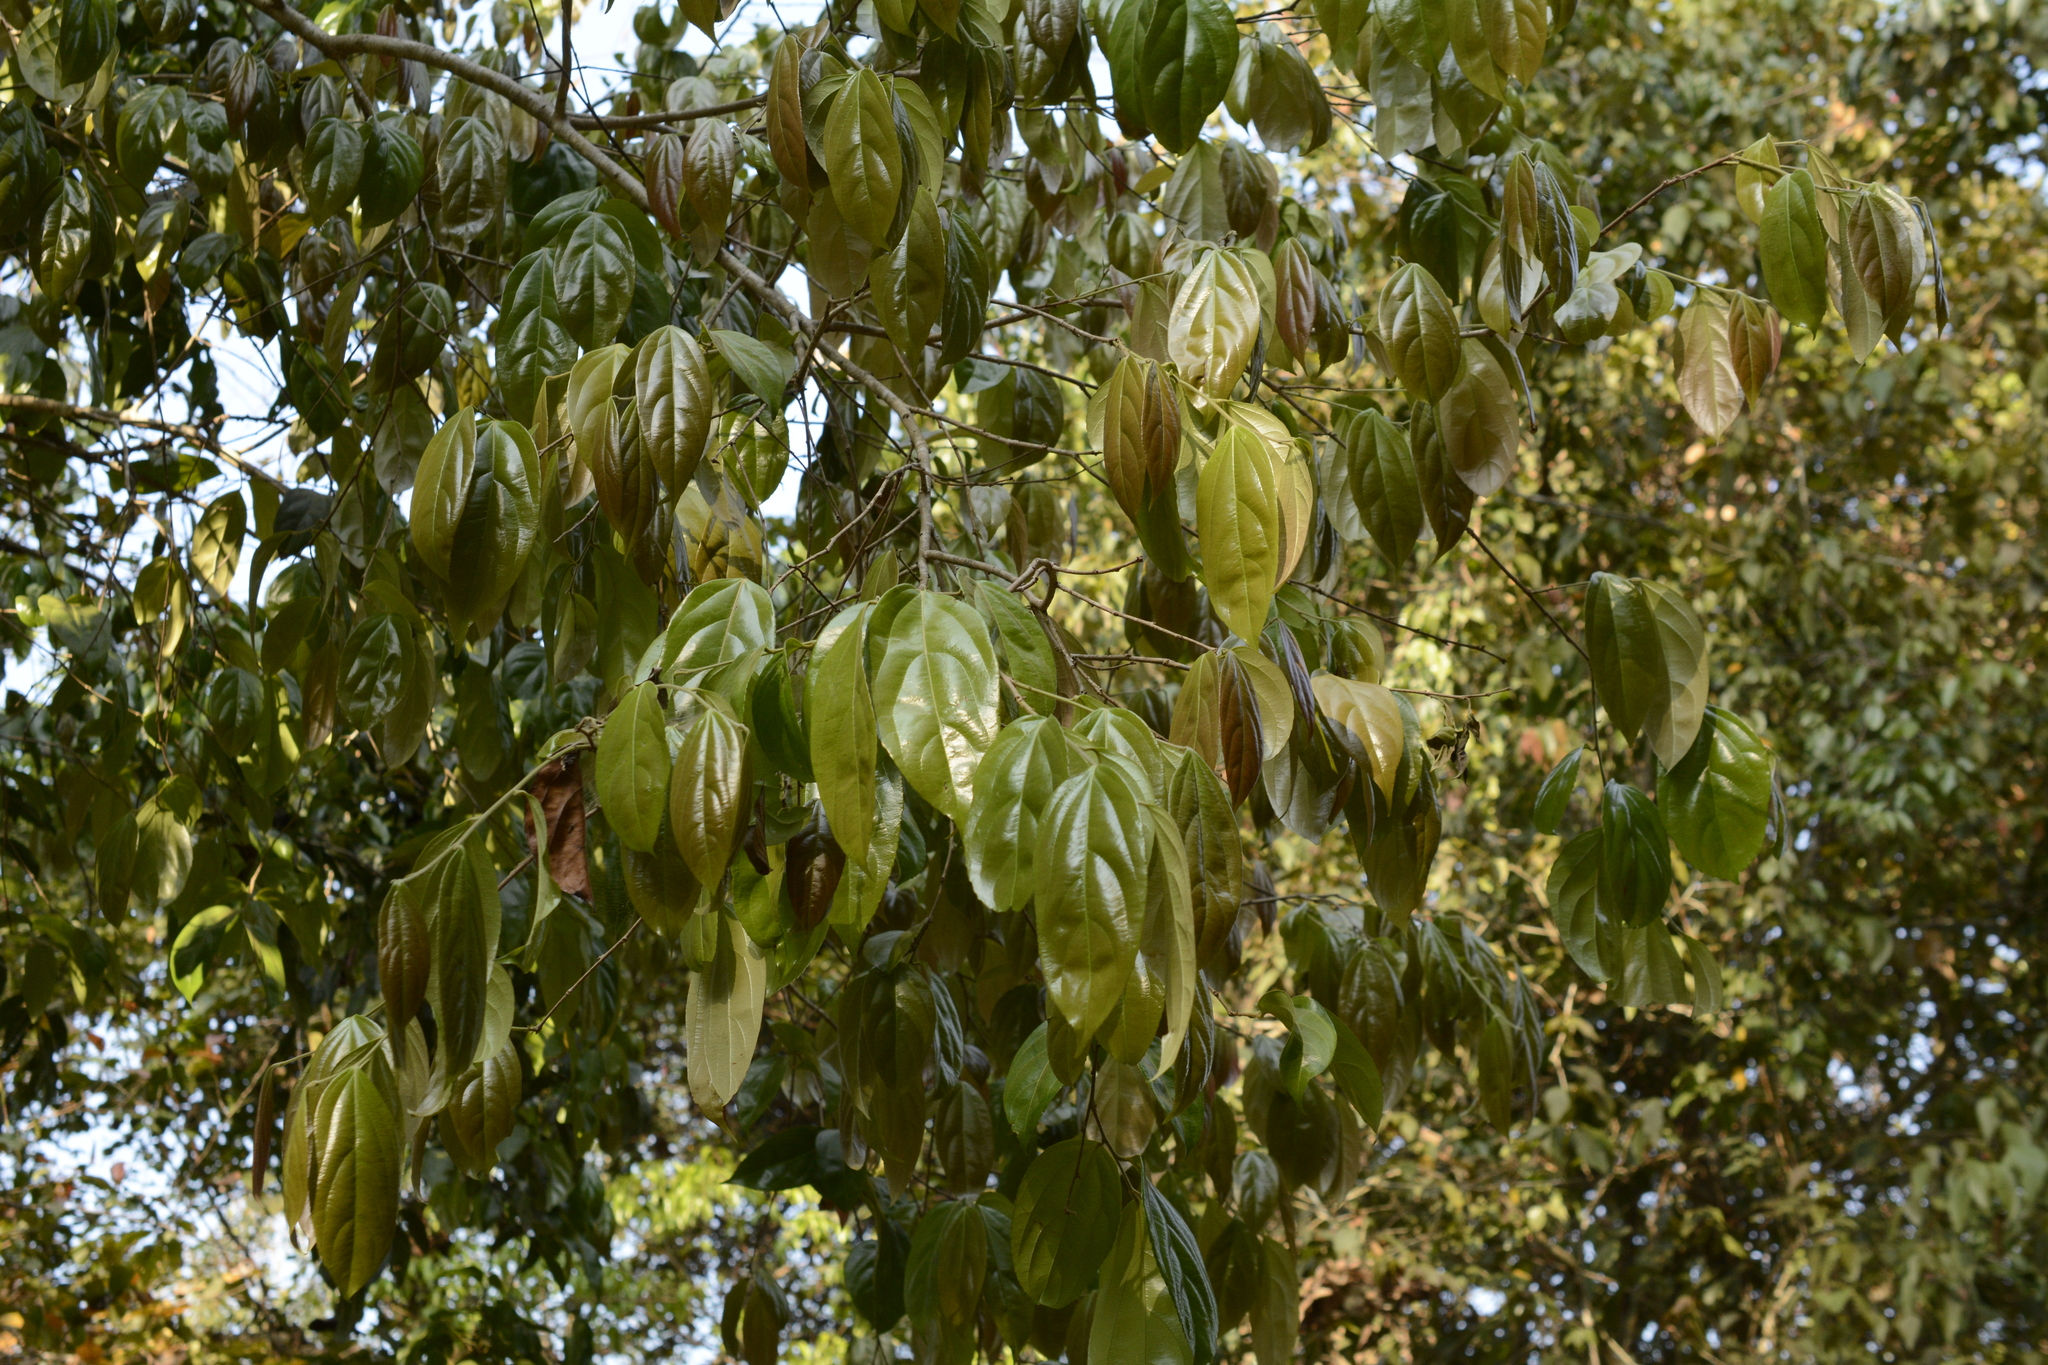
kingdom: Plantae
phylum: Tracheophyta
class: Magnoliopsida
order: Malpighiales
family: Salicaceae
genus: Flacourtia
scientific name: Flacourtia montana
